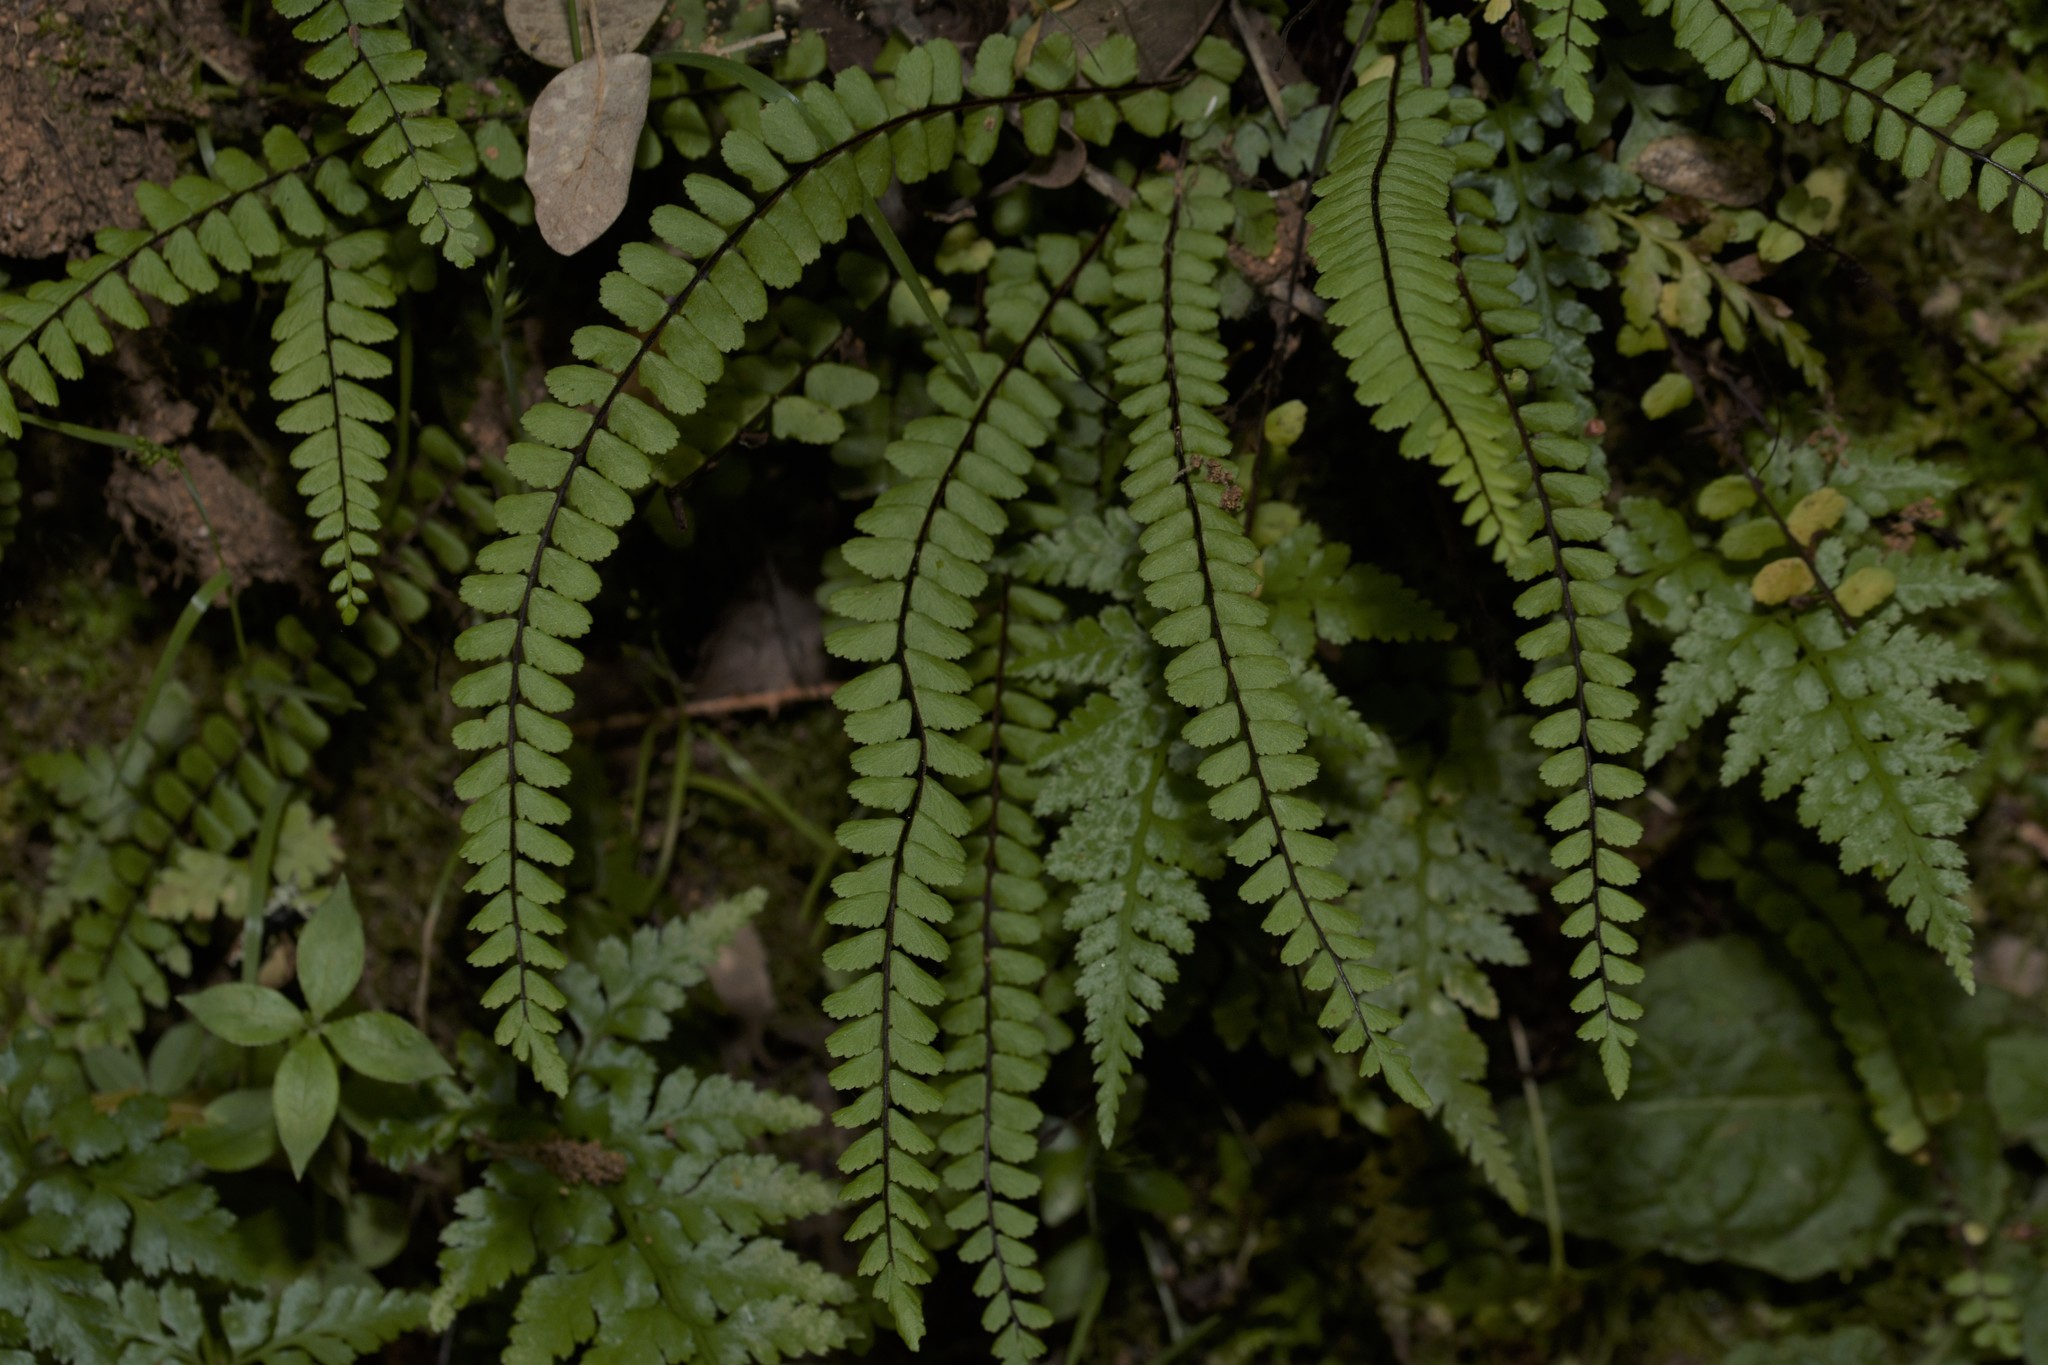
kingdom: Plantae
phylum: Tracheophyta
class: Polypodiopsida
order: Polypodiales
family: Aspleniaceae
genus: Asplenium
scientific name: Asplenium trichomanes
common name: Maidenhair spleenwort
